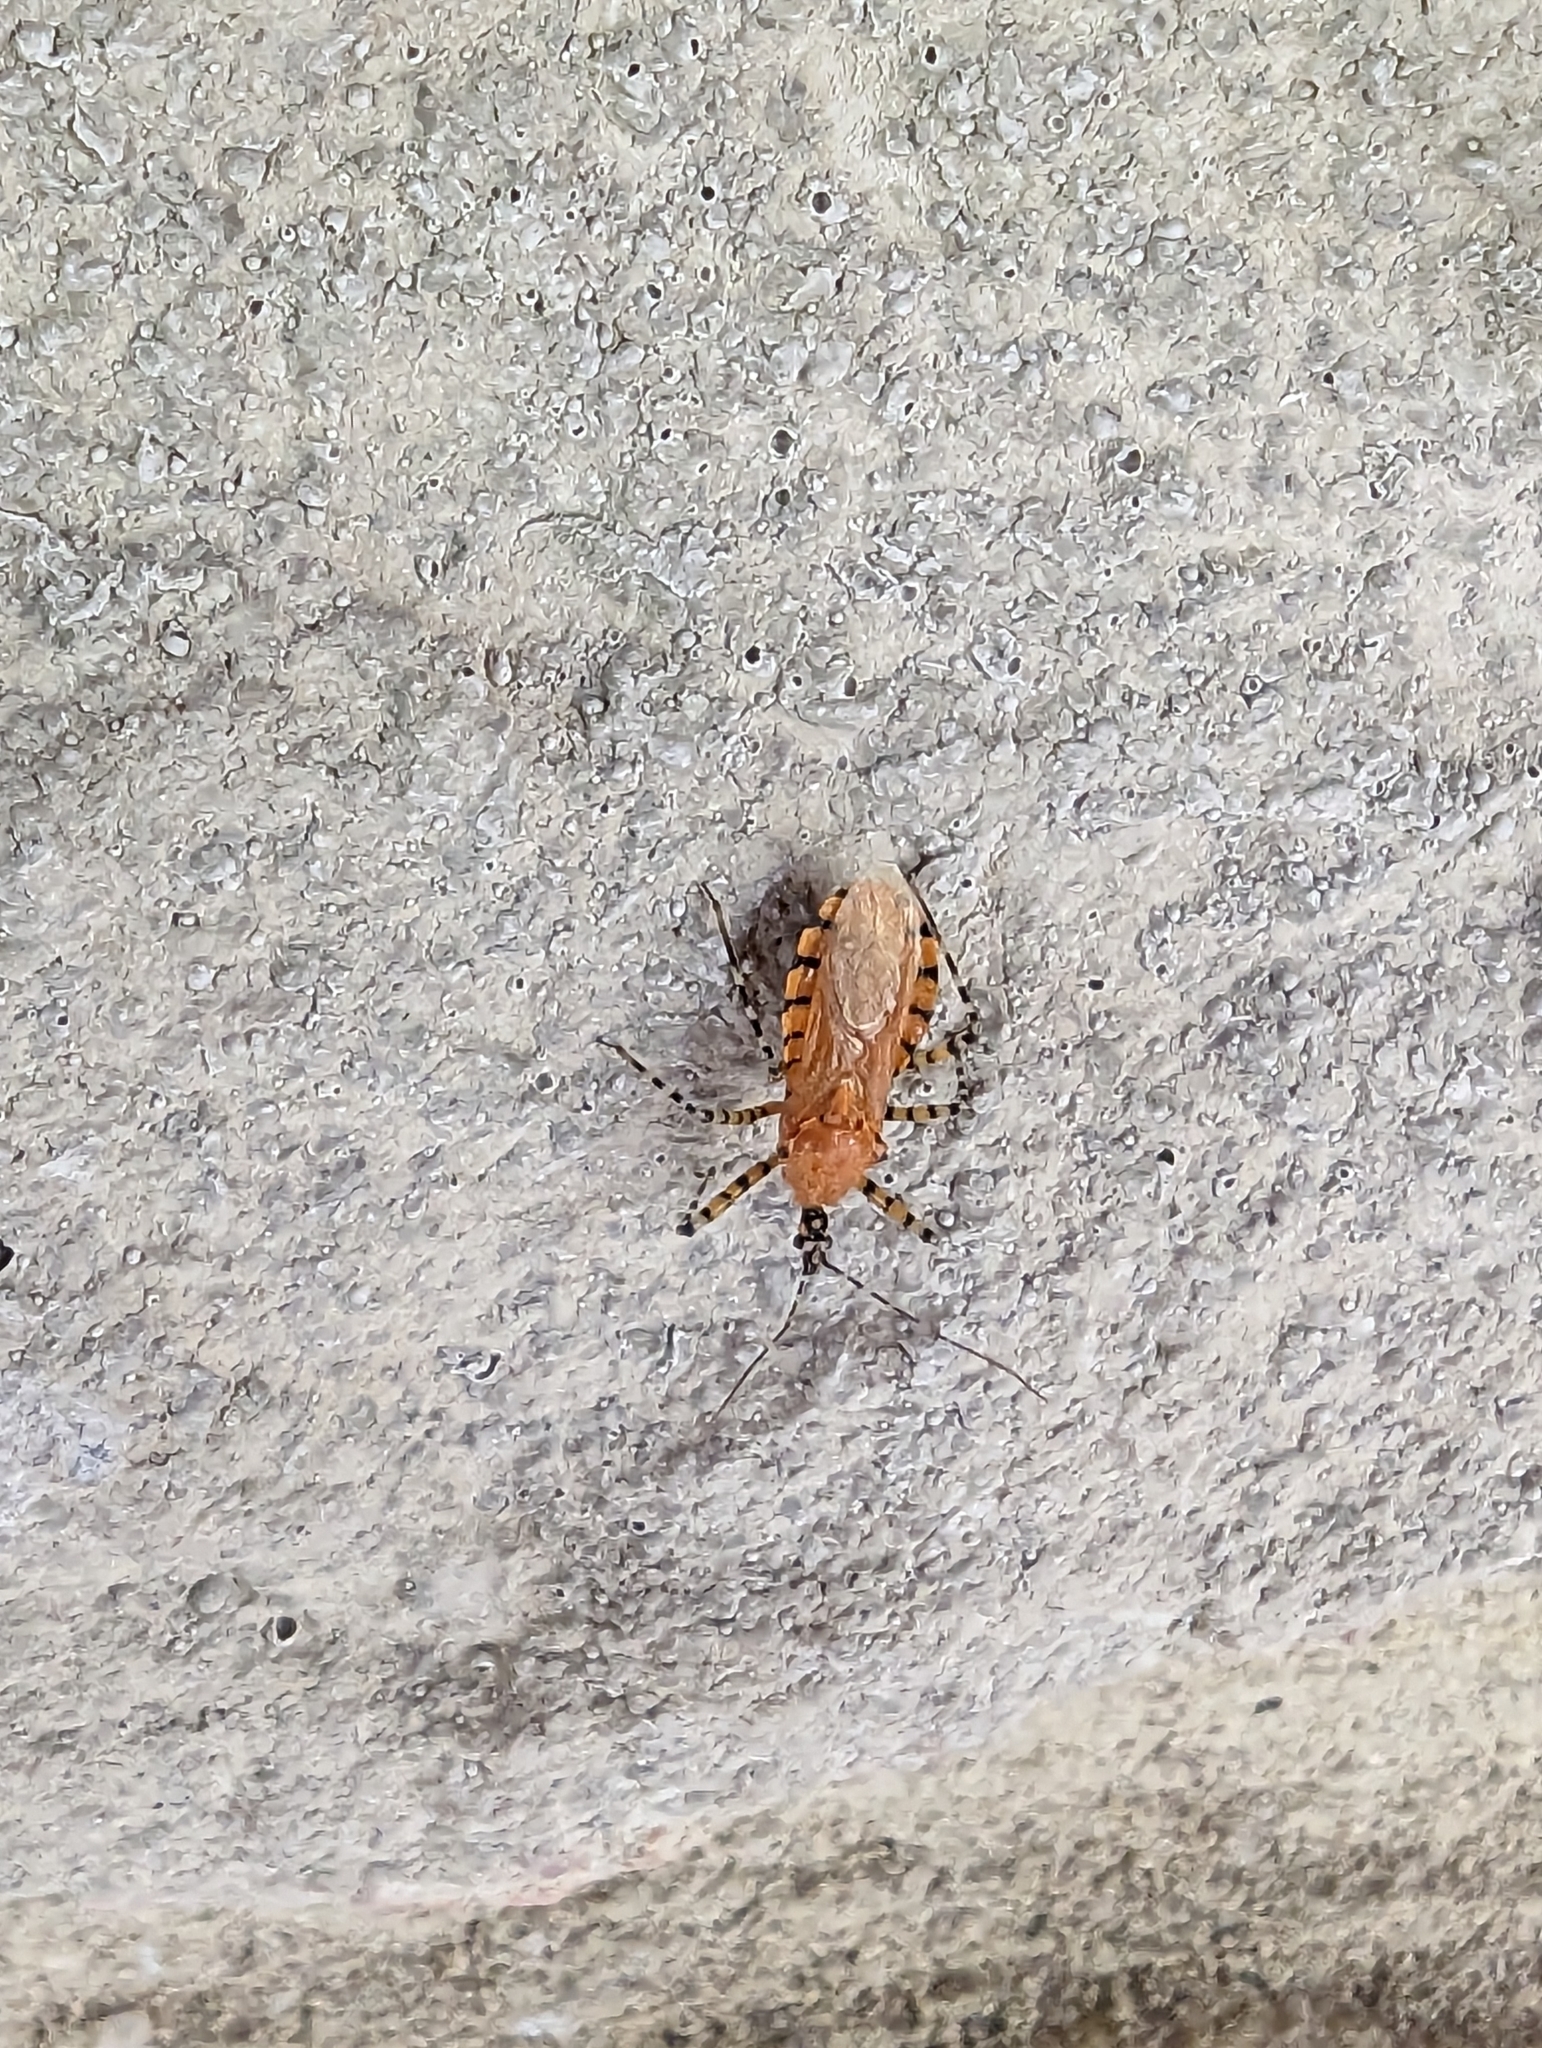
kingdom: Animalia
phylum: Arthropoda
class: Insecta
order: Hemiptera
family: Reduviidae
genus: Pselliopus
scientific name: Pselliopus barberi
